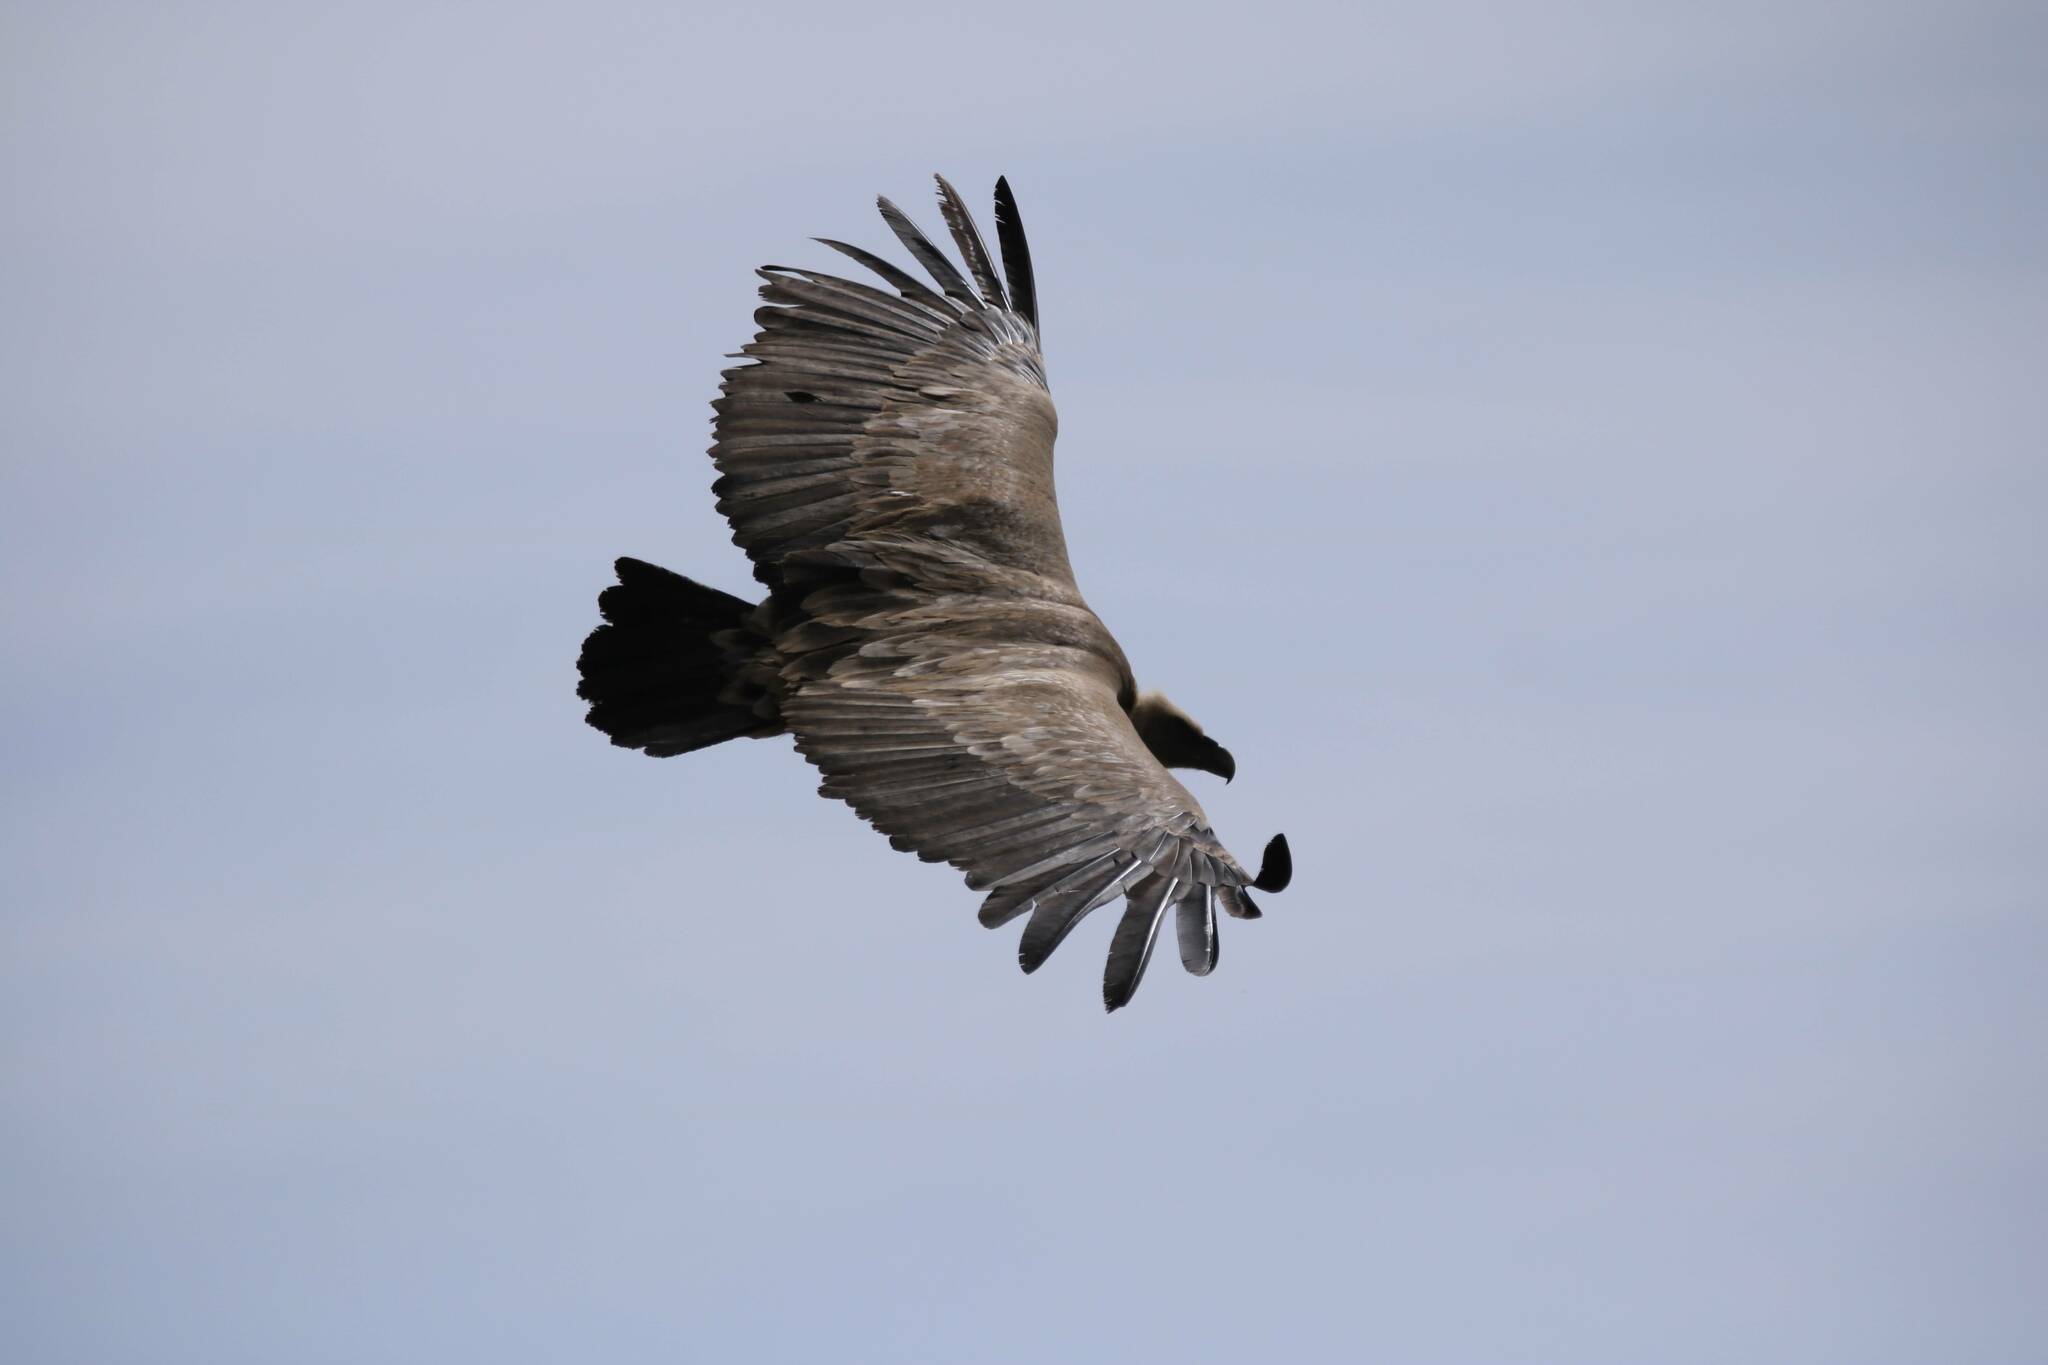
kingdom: Animalia
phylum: Chordata
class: Aves
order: Accipitriformes
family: Accipitridae
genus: Gyps
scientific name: Gyps fulvus
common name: Griffon vulture
